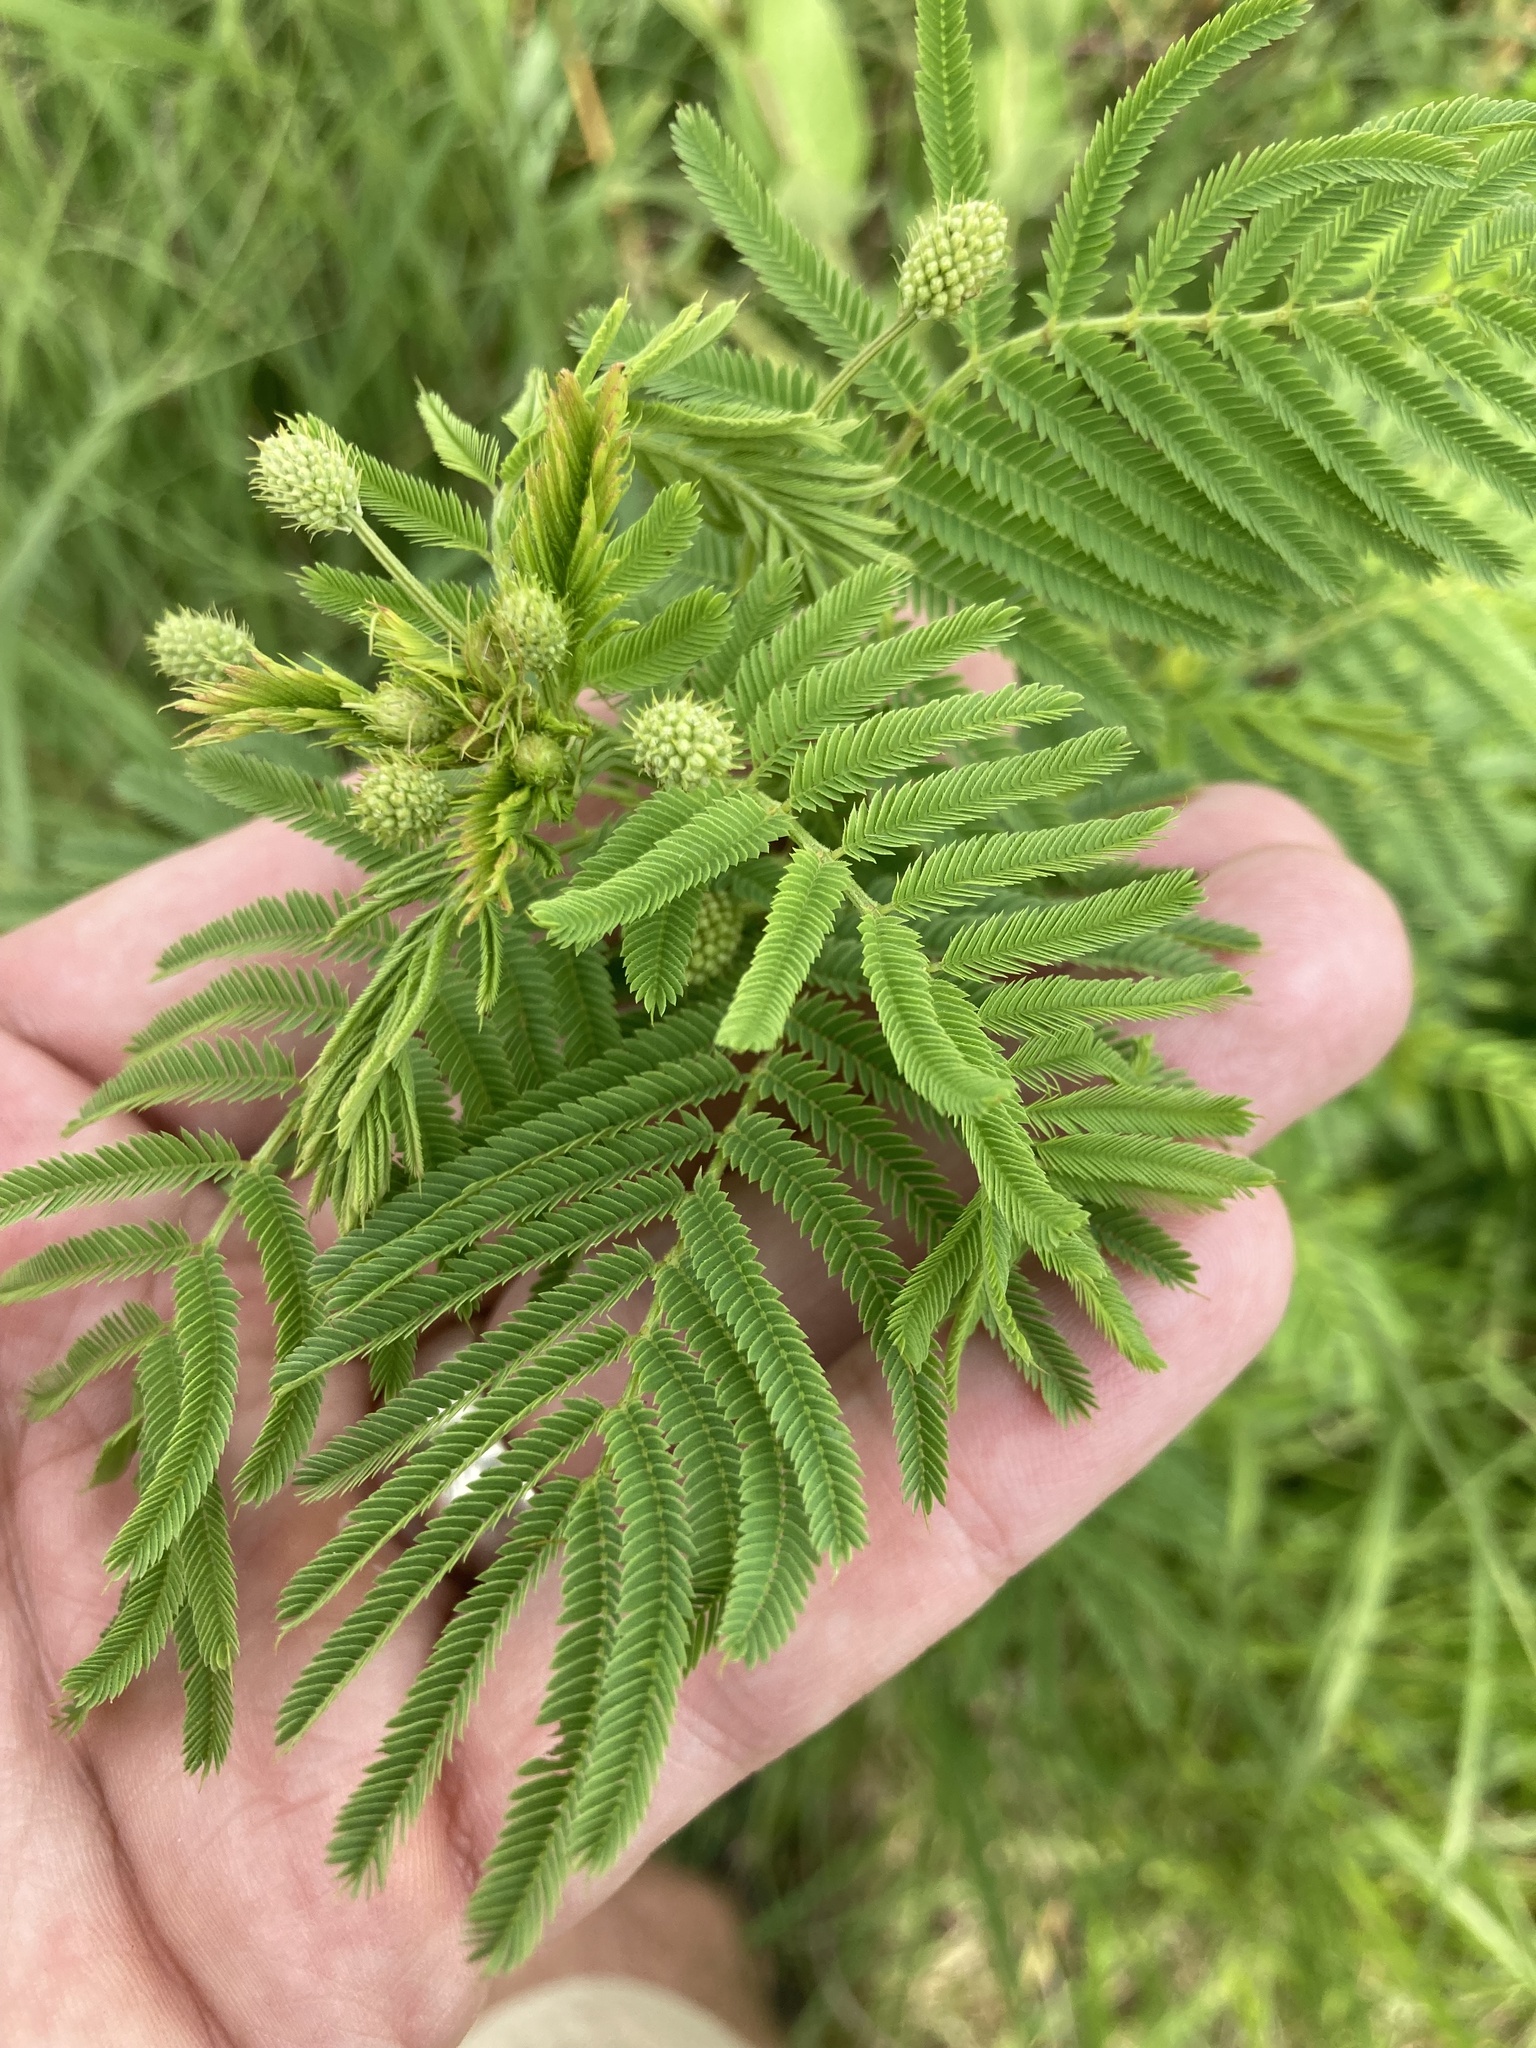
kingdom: Plantae
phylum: Tracheophyta
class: Magnoliopsida
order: Fabales
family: Fabaceae
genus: Desmanthus
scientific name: Desmanthus illinoensis
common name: Illinois bundle-flower
